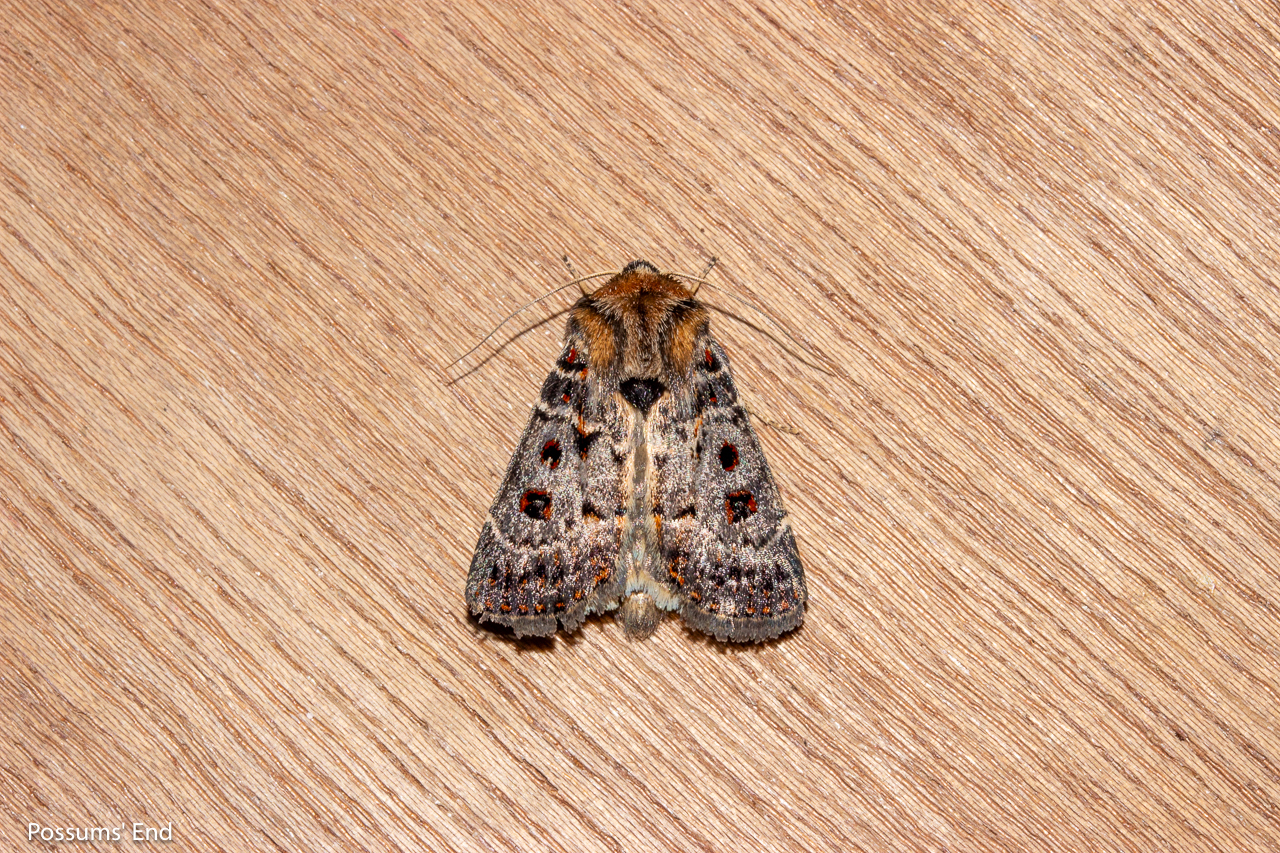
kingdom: Animalia
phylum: Arthropoda
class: Insecta
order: Lepidoptera
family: Noctuidae
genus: Proteuxoa
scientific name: Proteuxoa sanguinipuncta
